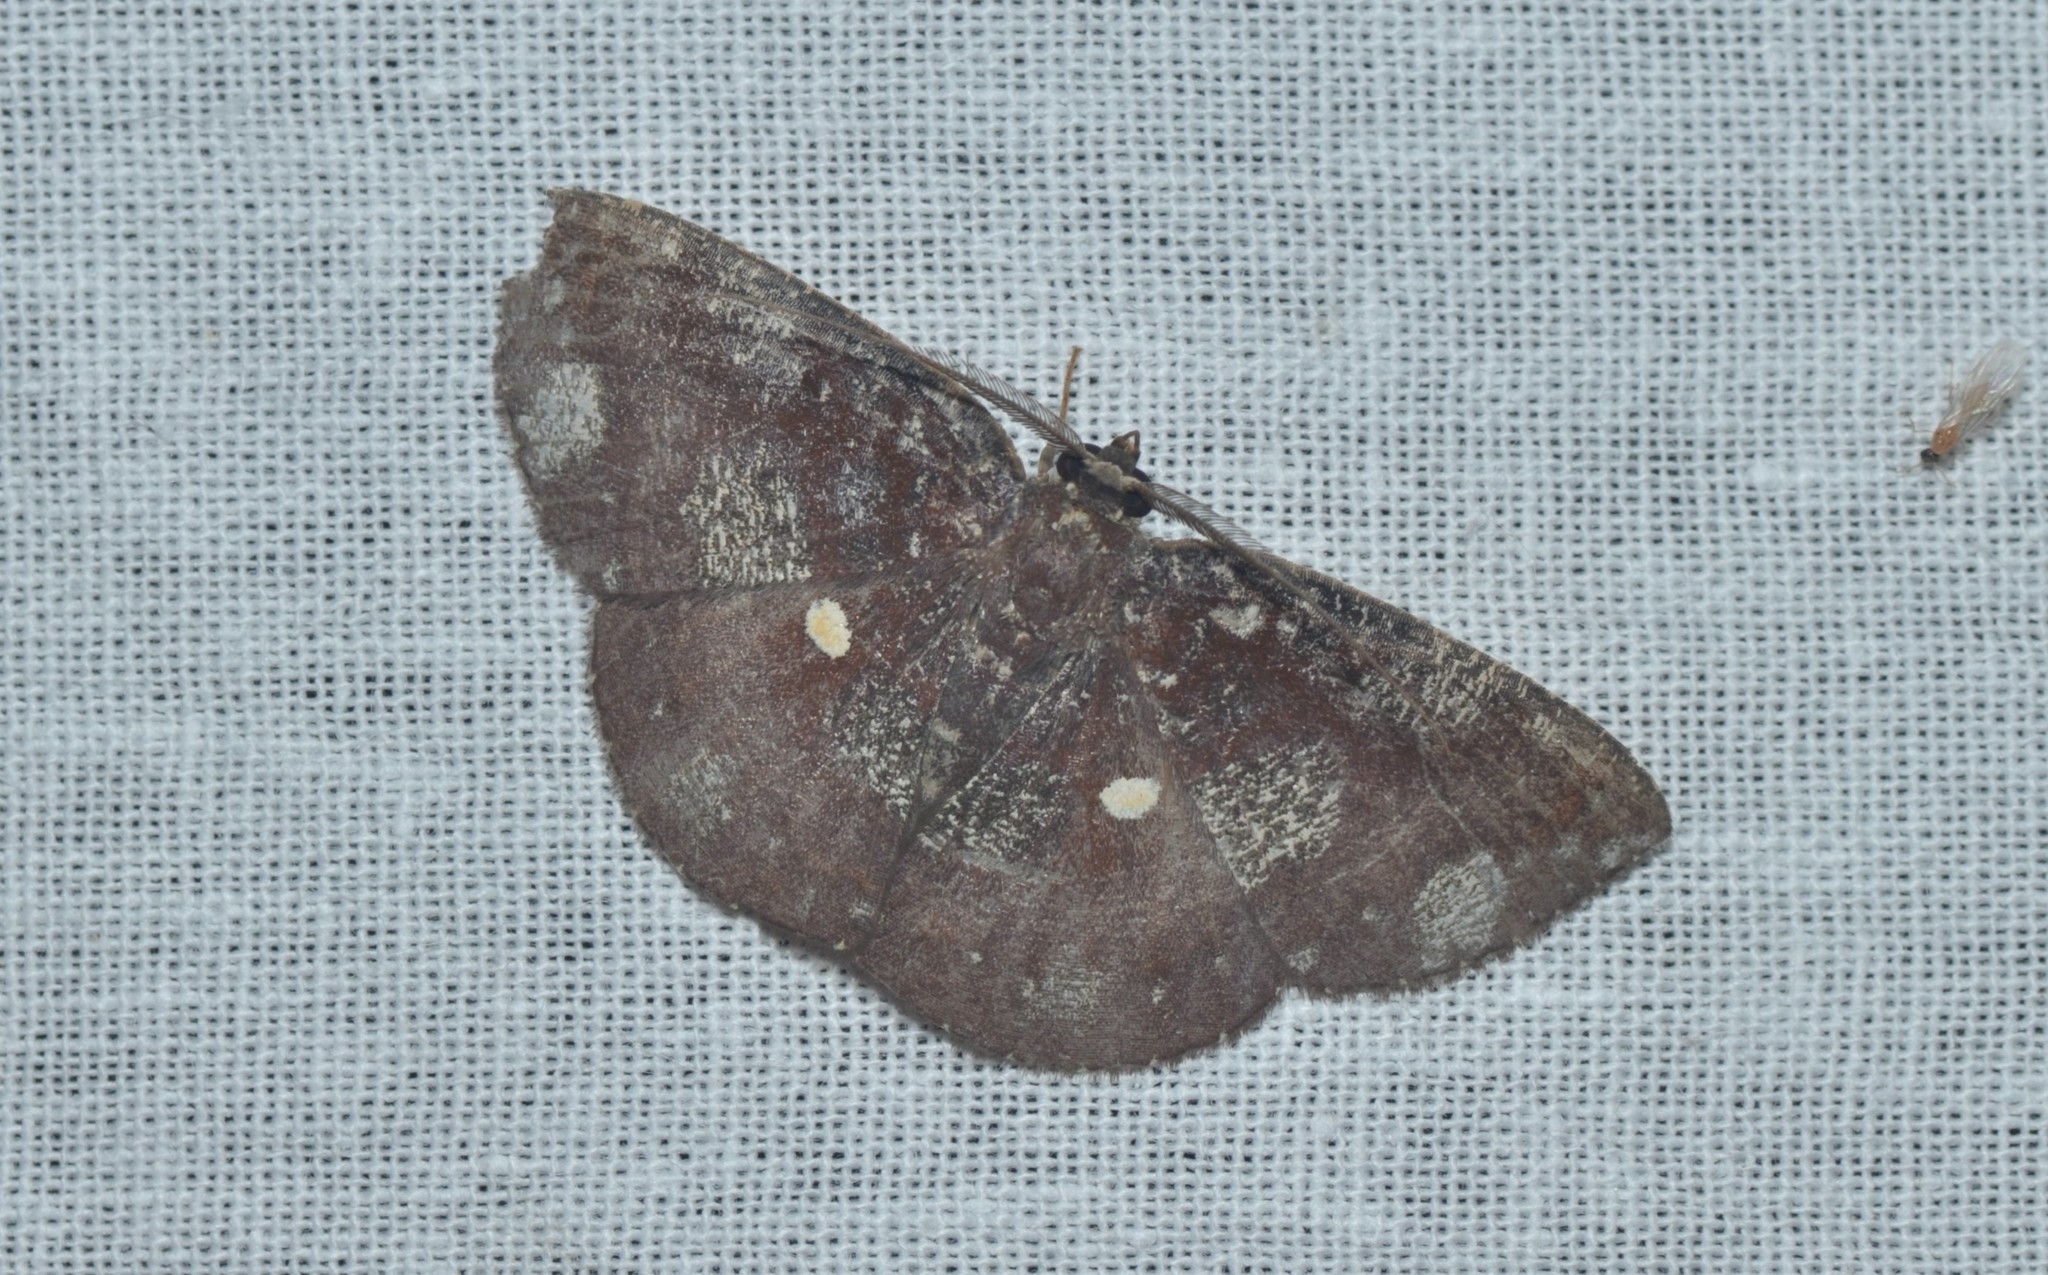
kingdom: Animalia
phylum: Arthropoda
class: Insecta
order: Lepidoptera
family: Geometridae
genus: Astygisa
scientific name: Astygisa metaspila
